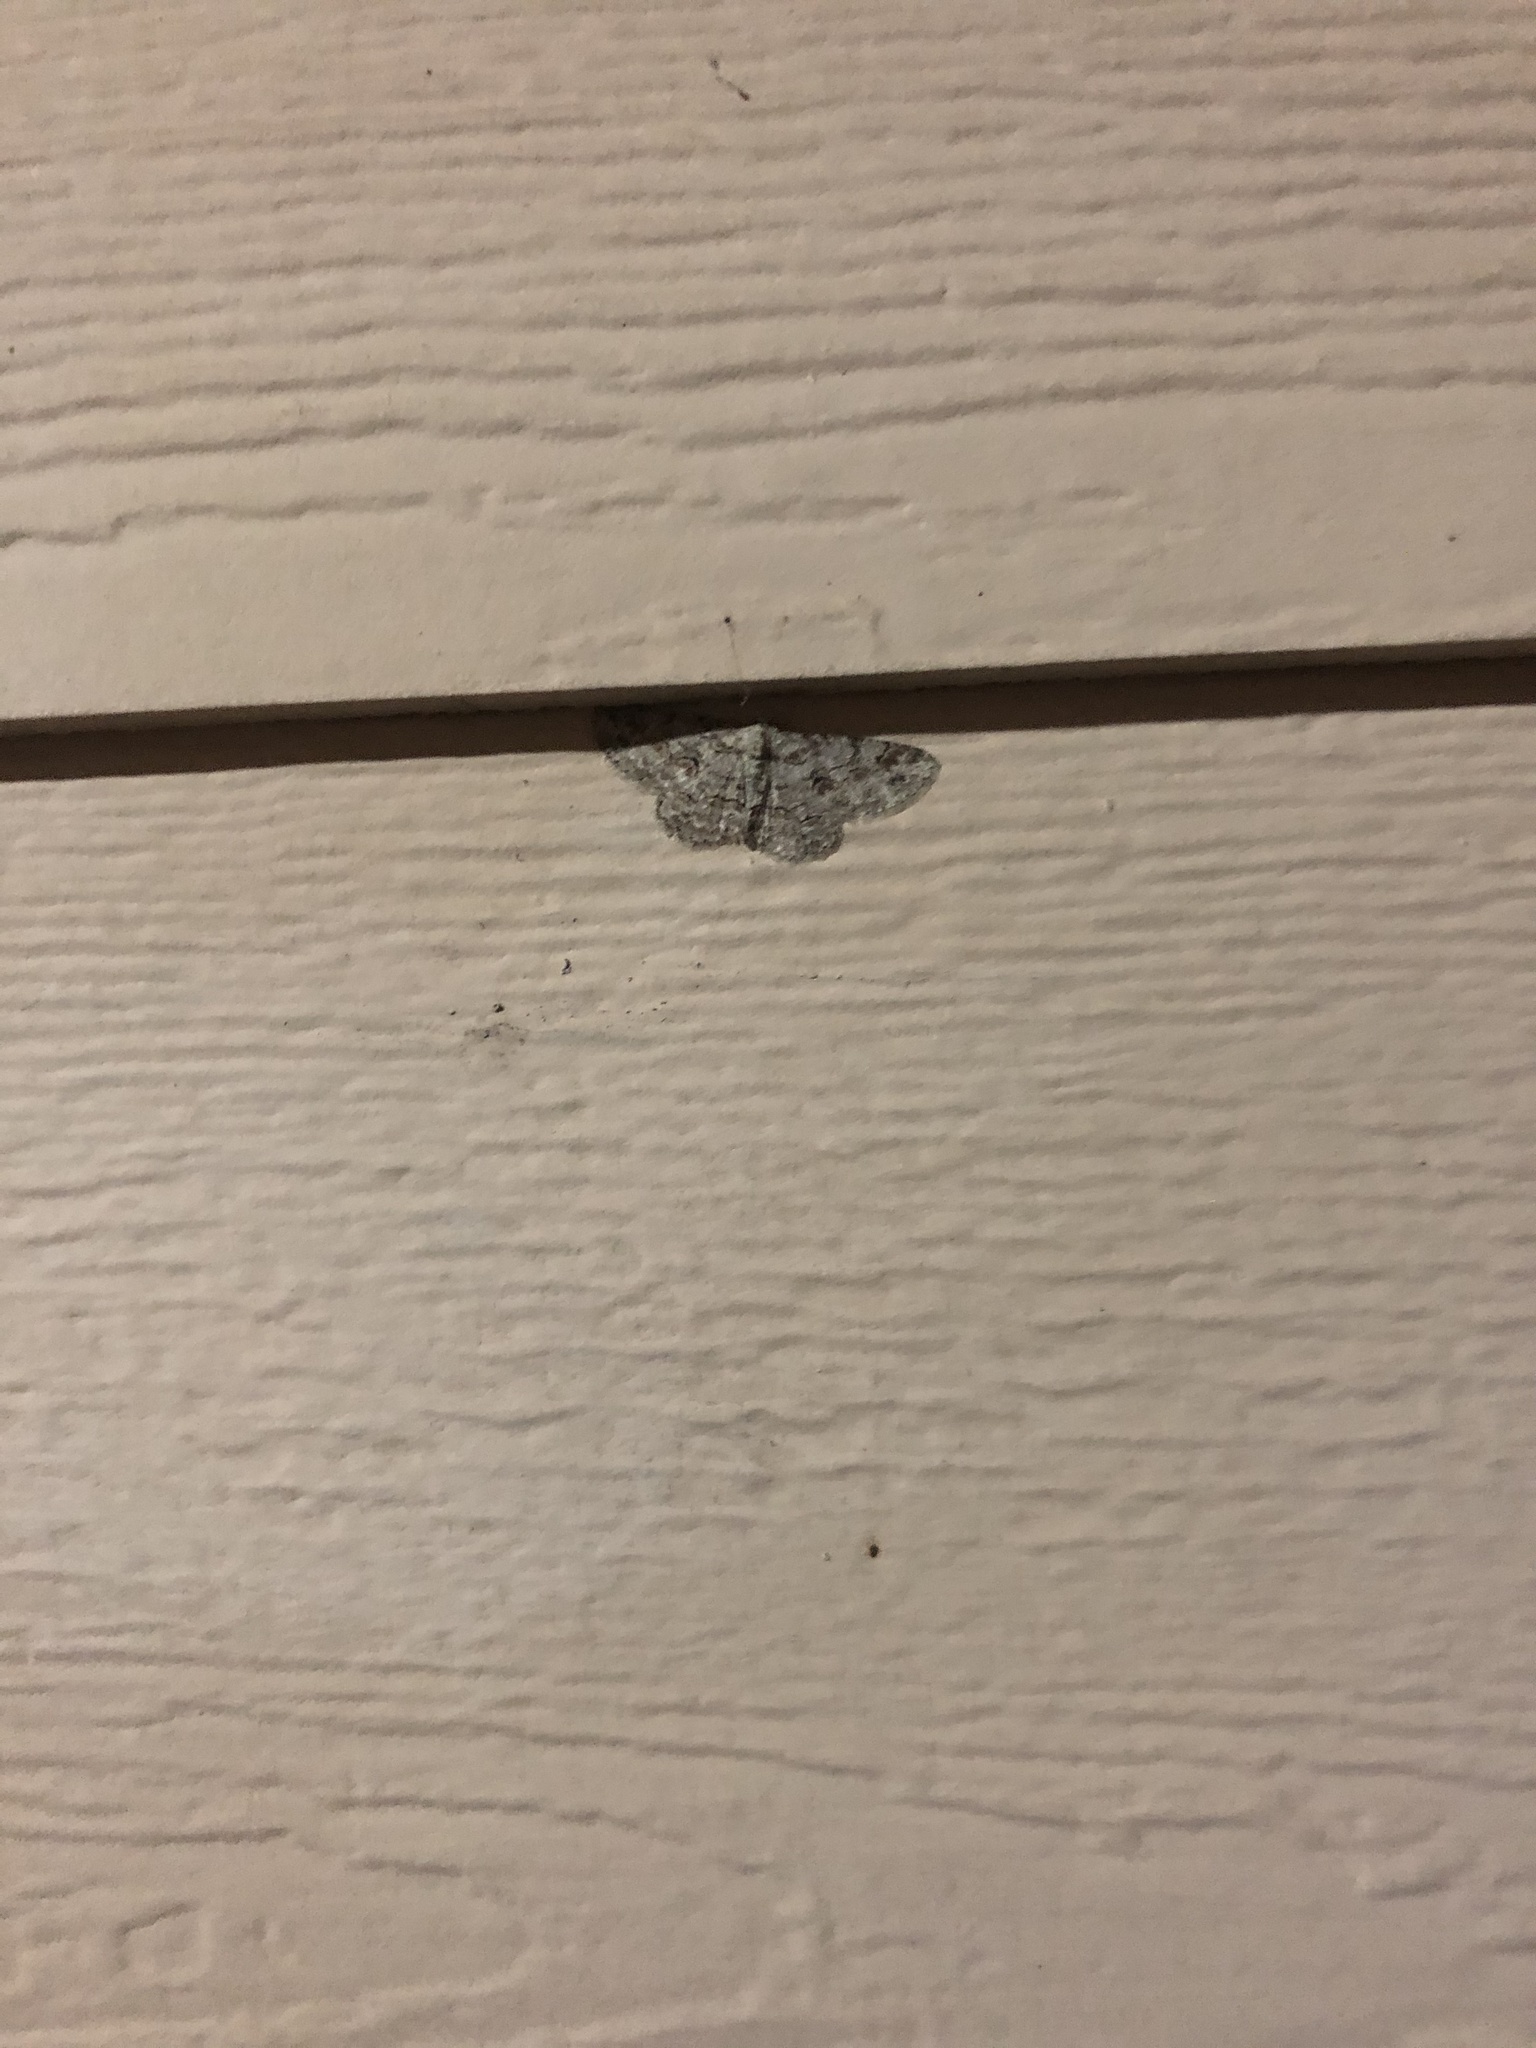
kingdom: Animalia
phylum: Arthropoda
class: Insecta
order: Lepidoptera
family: Geometridae
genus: Iridopsis
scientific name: Iridopsis defectaria
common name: Brown-shaded gray
